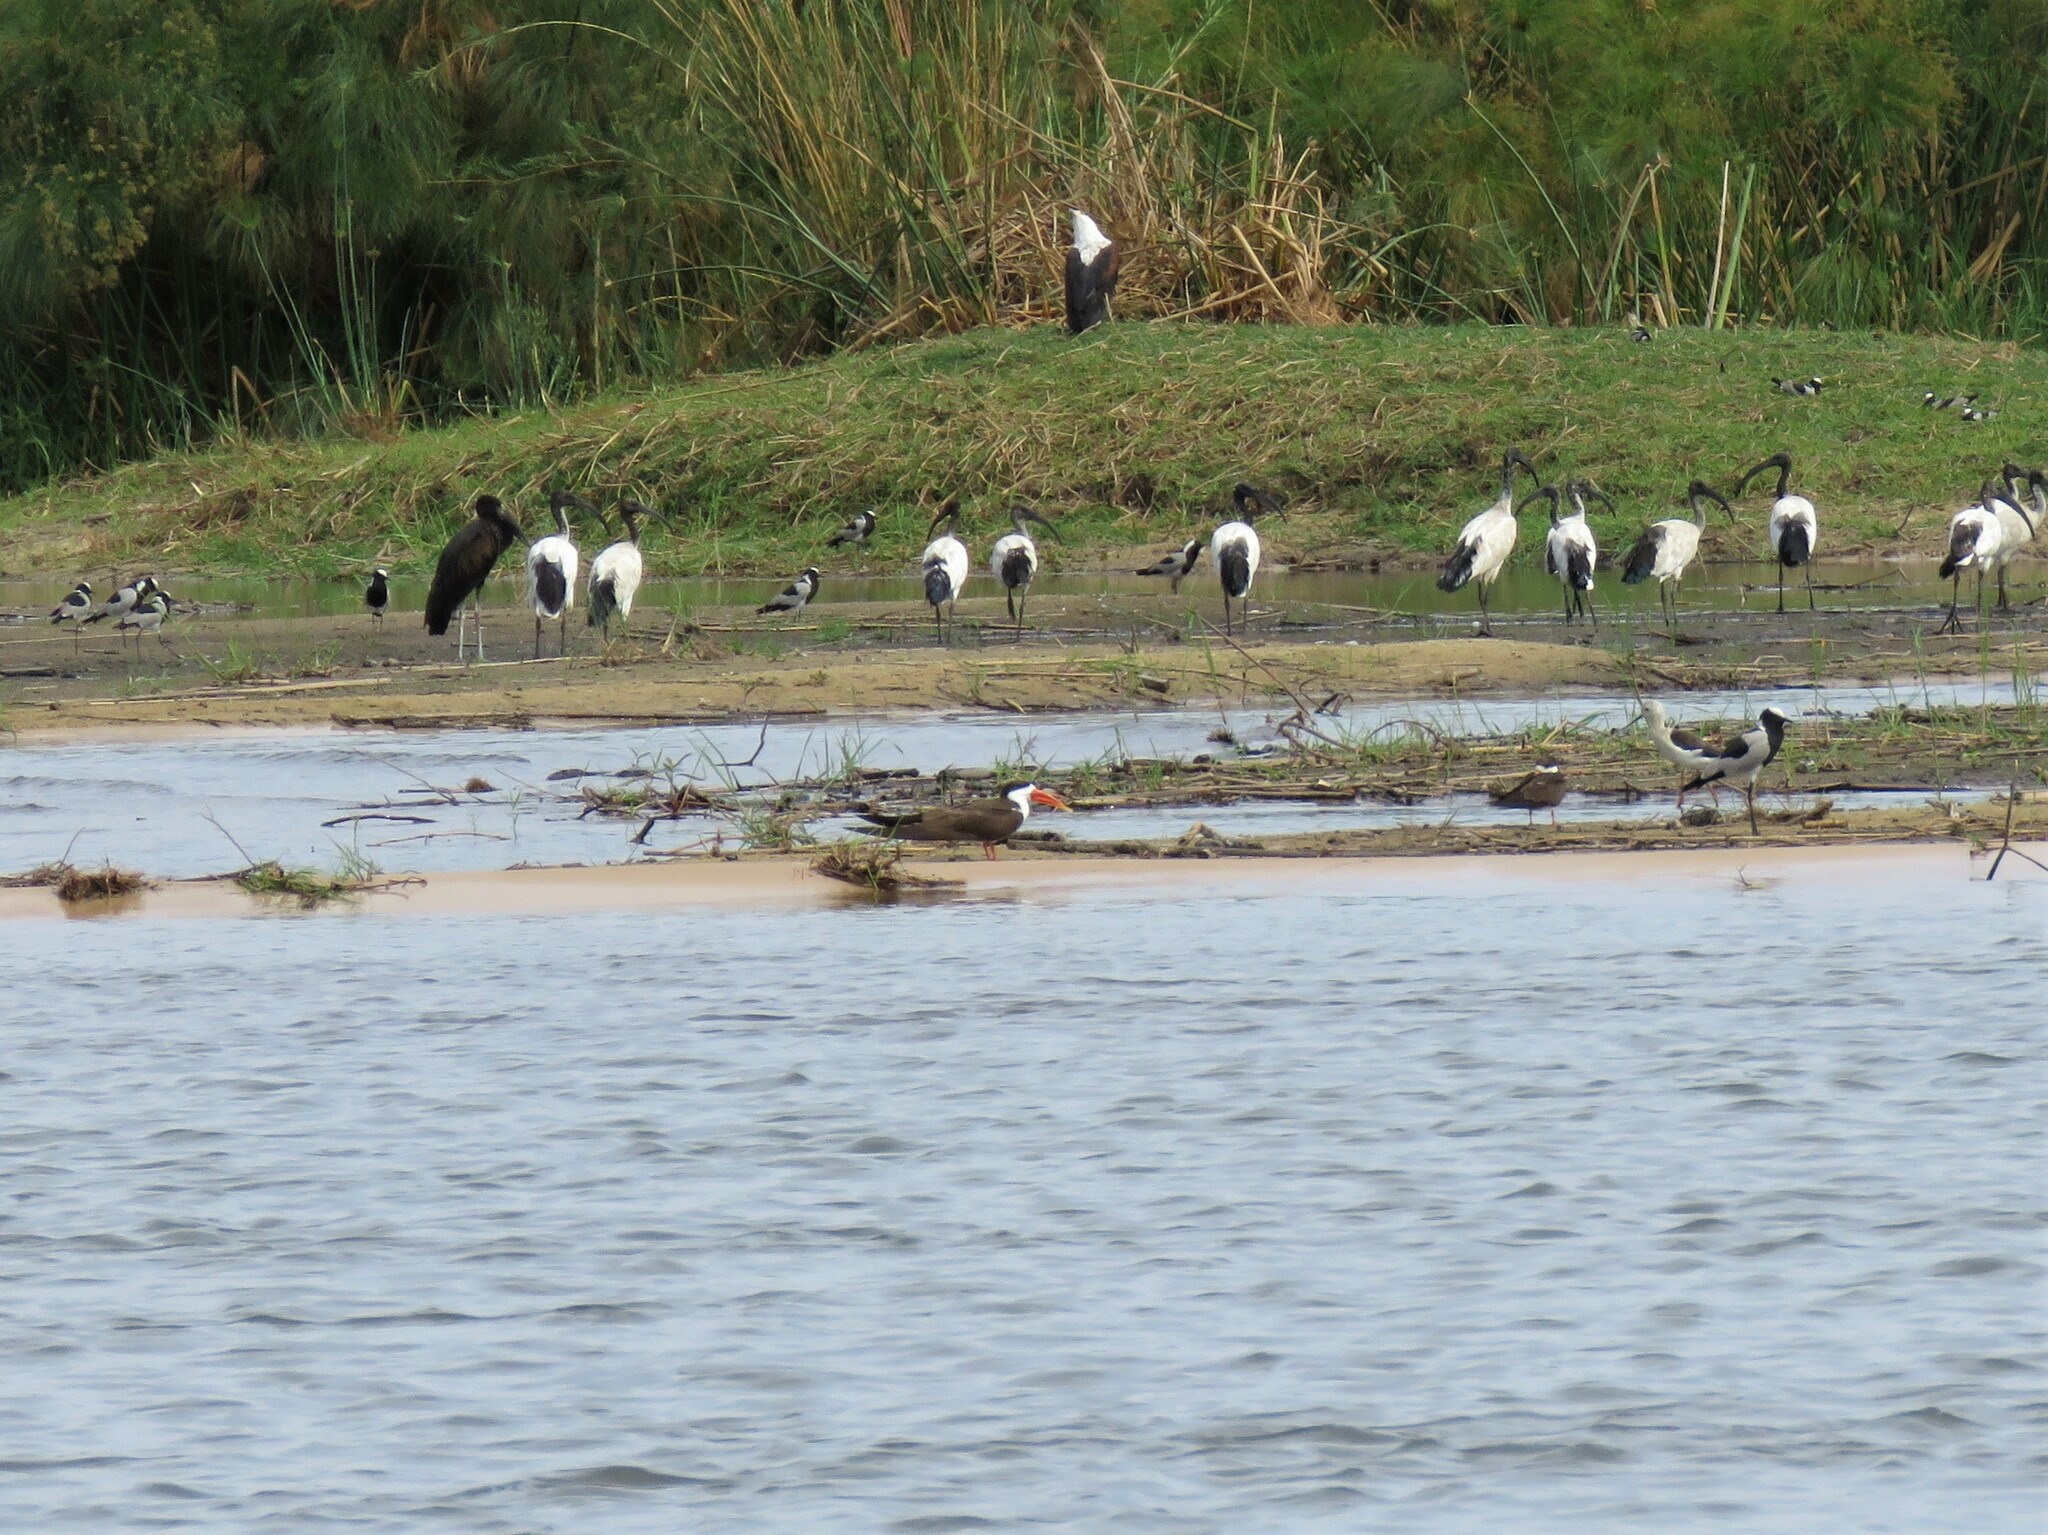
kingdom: Animalia
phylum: Chordata
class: Aves
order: Charadriiformes
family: Laridae
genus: Rynchops
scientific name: Rynchops flavirostris
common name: African skimmer
